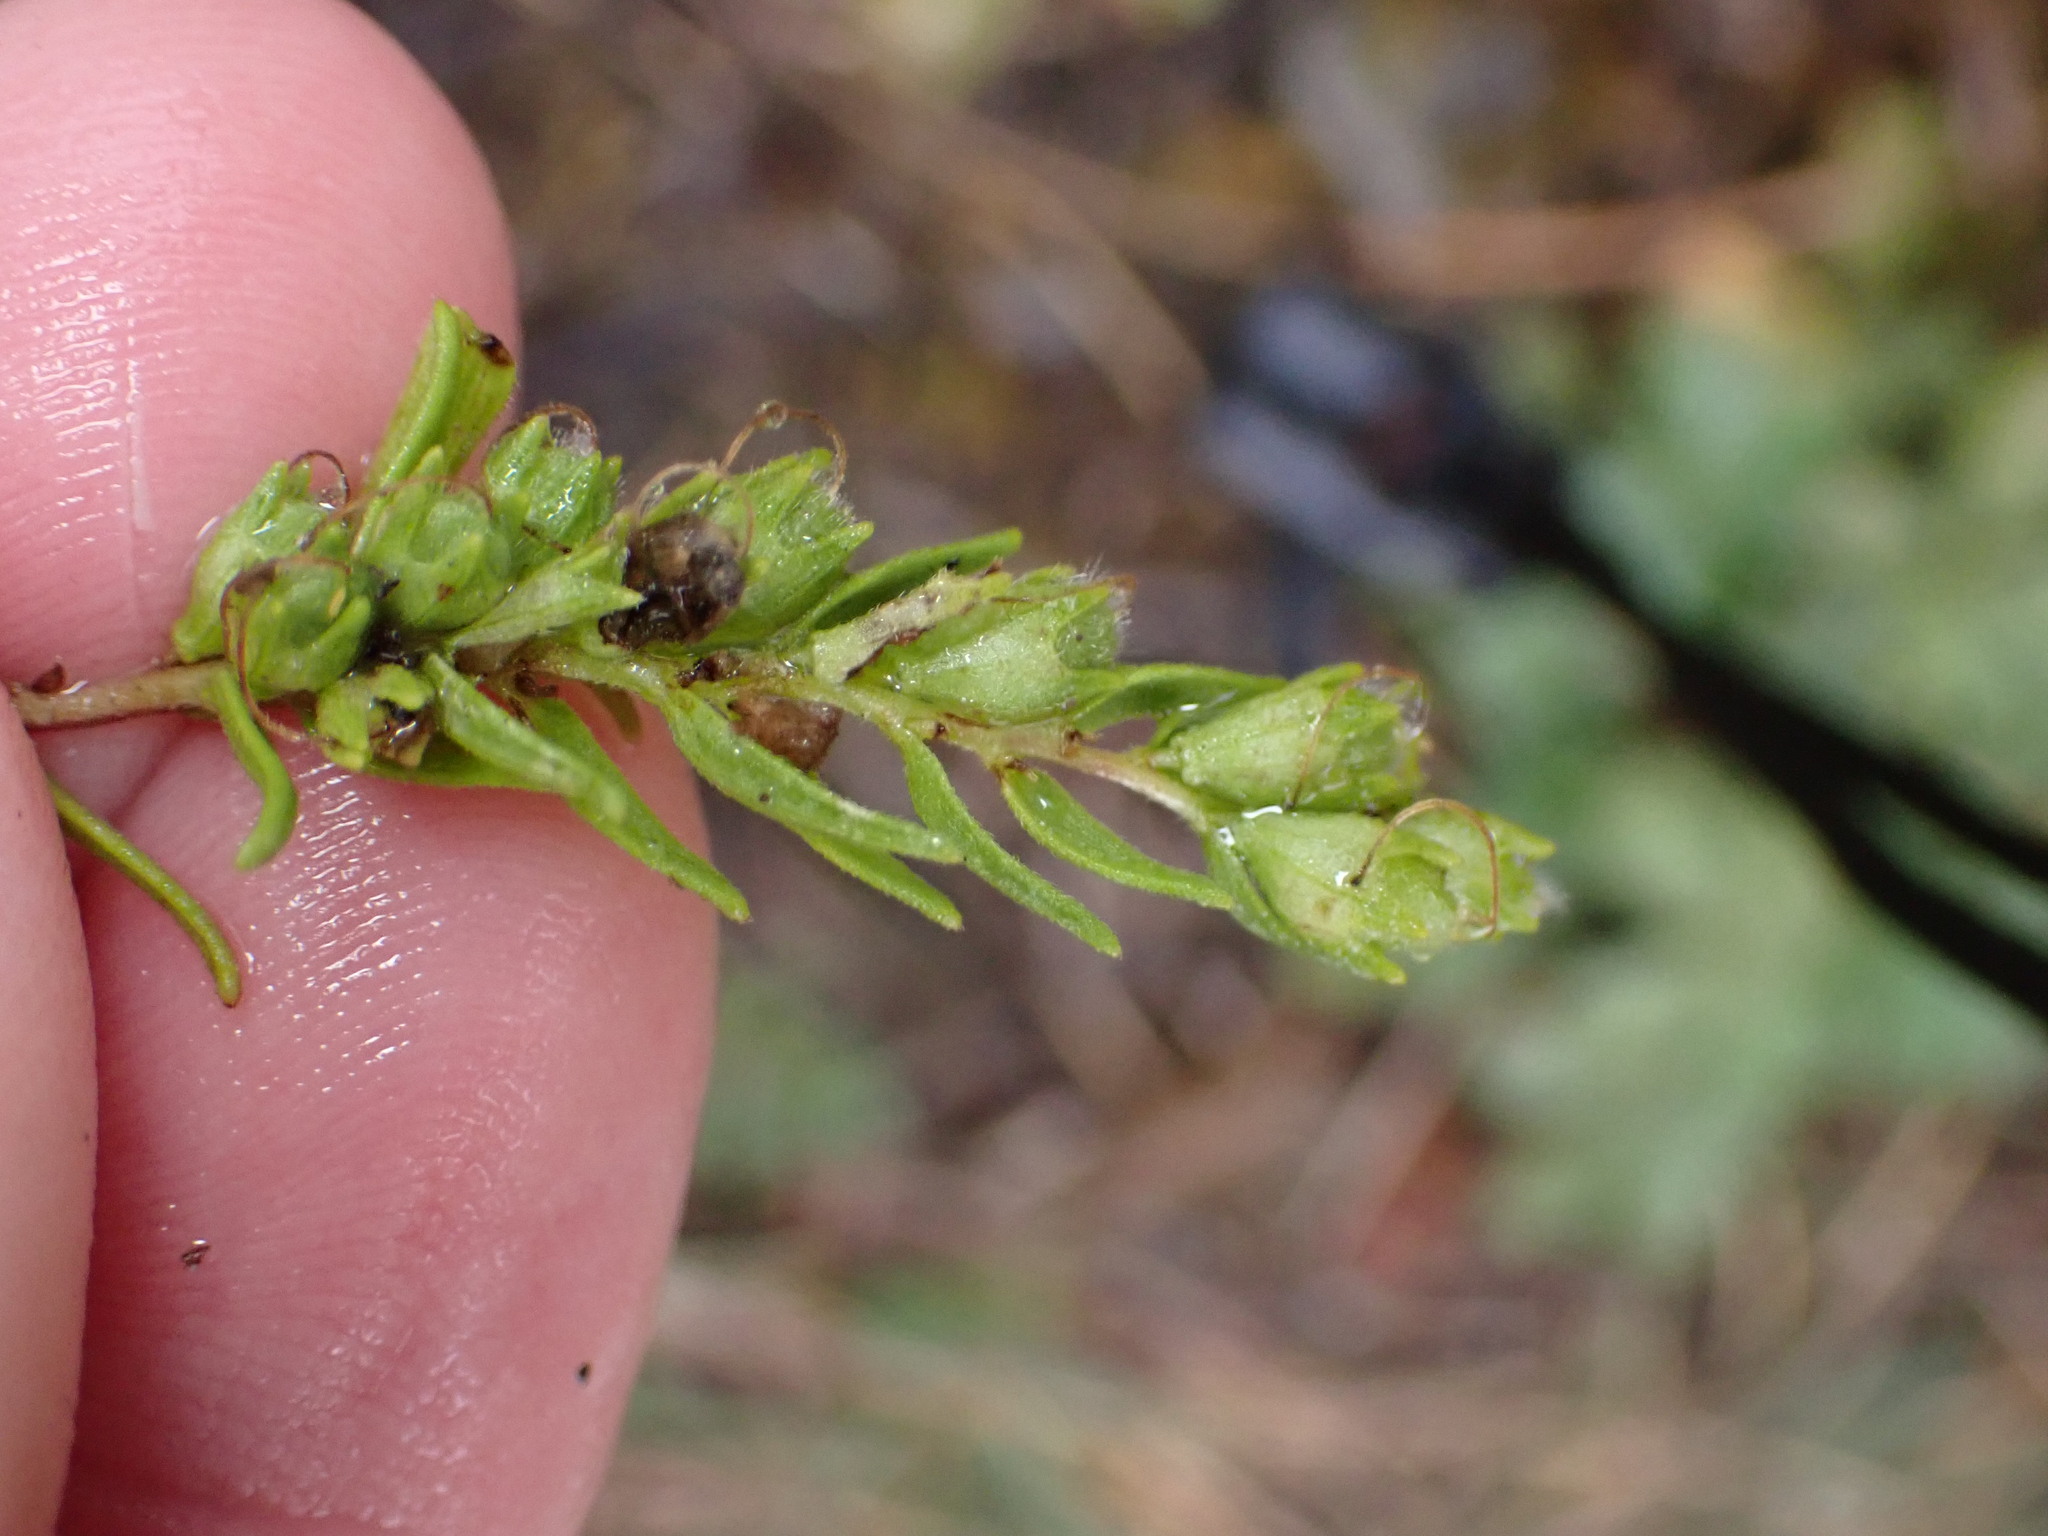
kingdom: Plantae
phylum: Tracheophyta
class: Magnoliopsida
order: Lamiales
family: Orobanchaceae
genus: Odontites
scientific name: Odontites luteus
